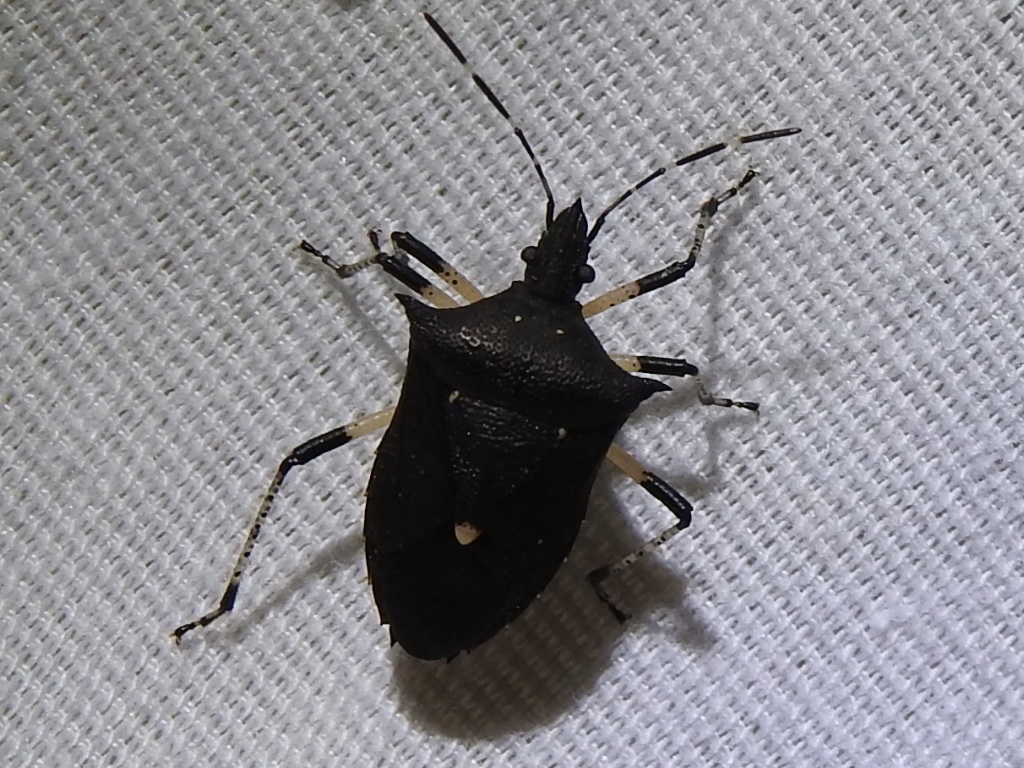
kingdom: Animalia
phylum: Arthropoda
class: Insecta
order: Hemiptera
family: Pentatomidae
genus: Proxys
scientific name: Proxys punctulatus
